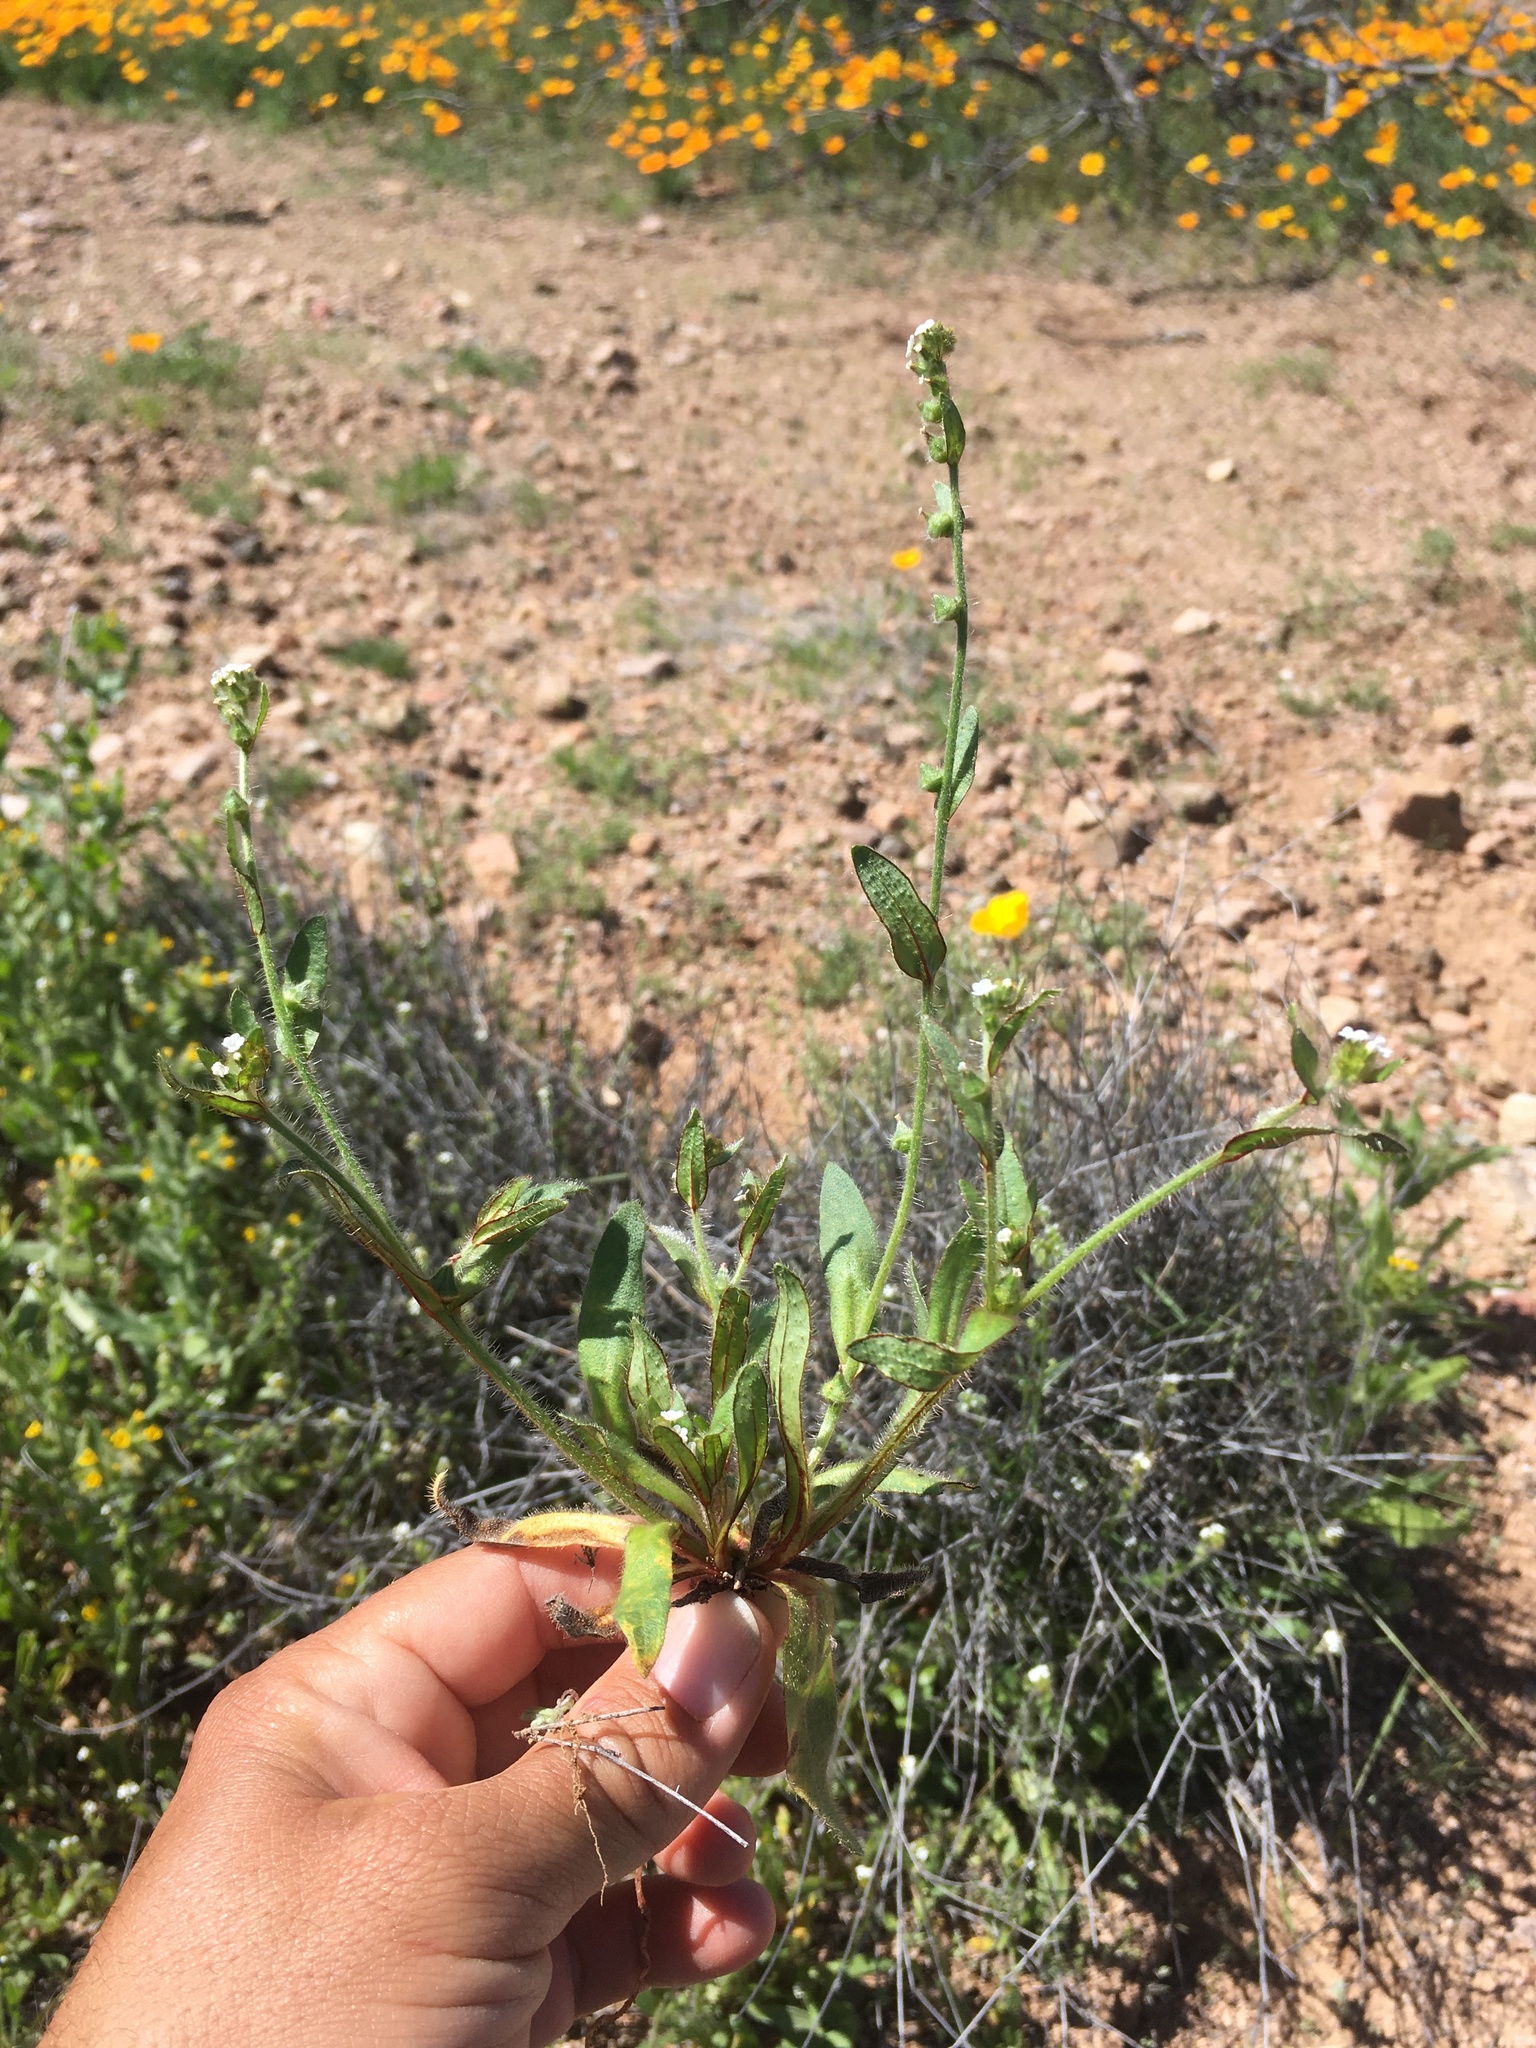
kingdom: Plantae
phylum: Tracheophyta
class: Magnoliopsida
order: Boraginales
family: Boraginaceae
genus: Plagiobothrys
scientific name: Plagiobothrys arizonicus
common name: Arizona popcorn-flower
